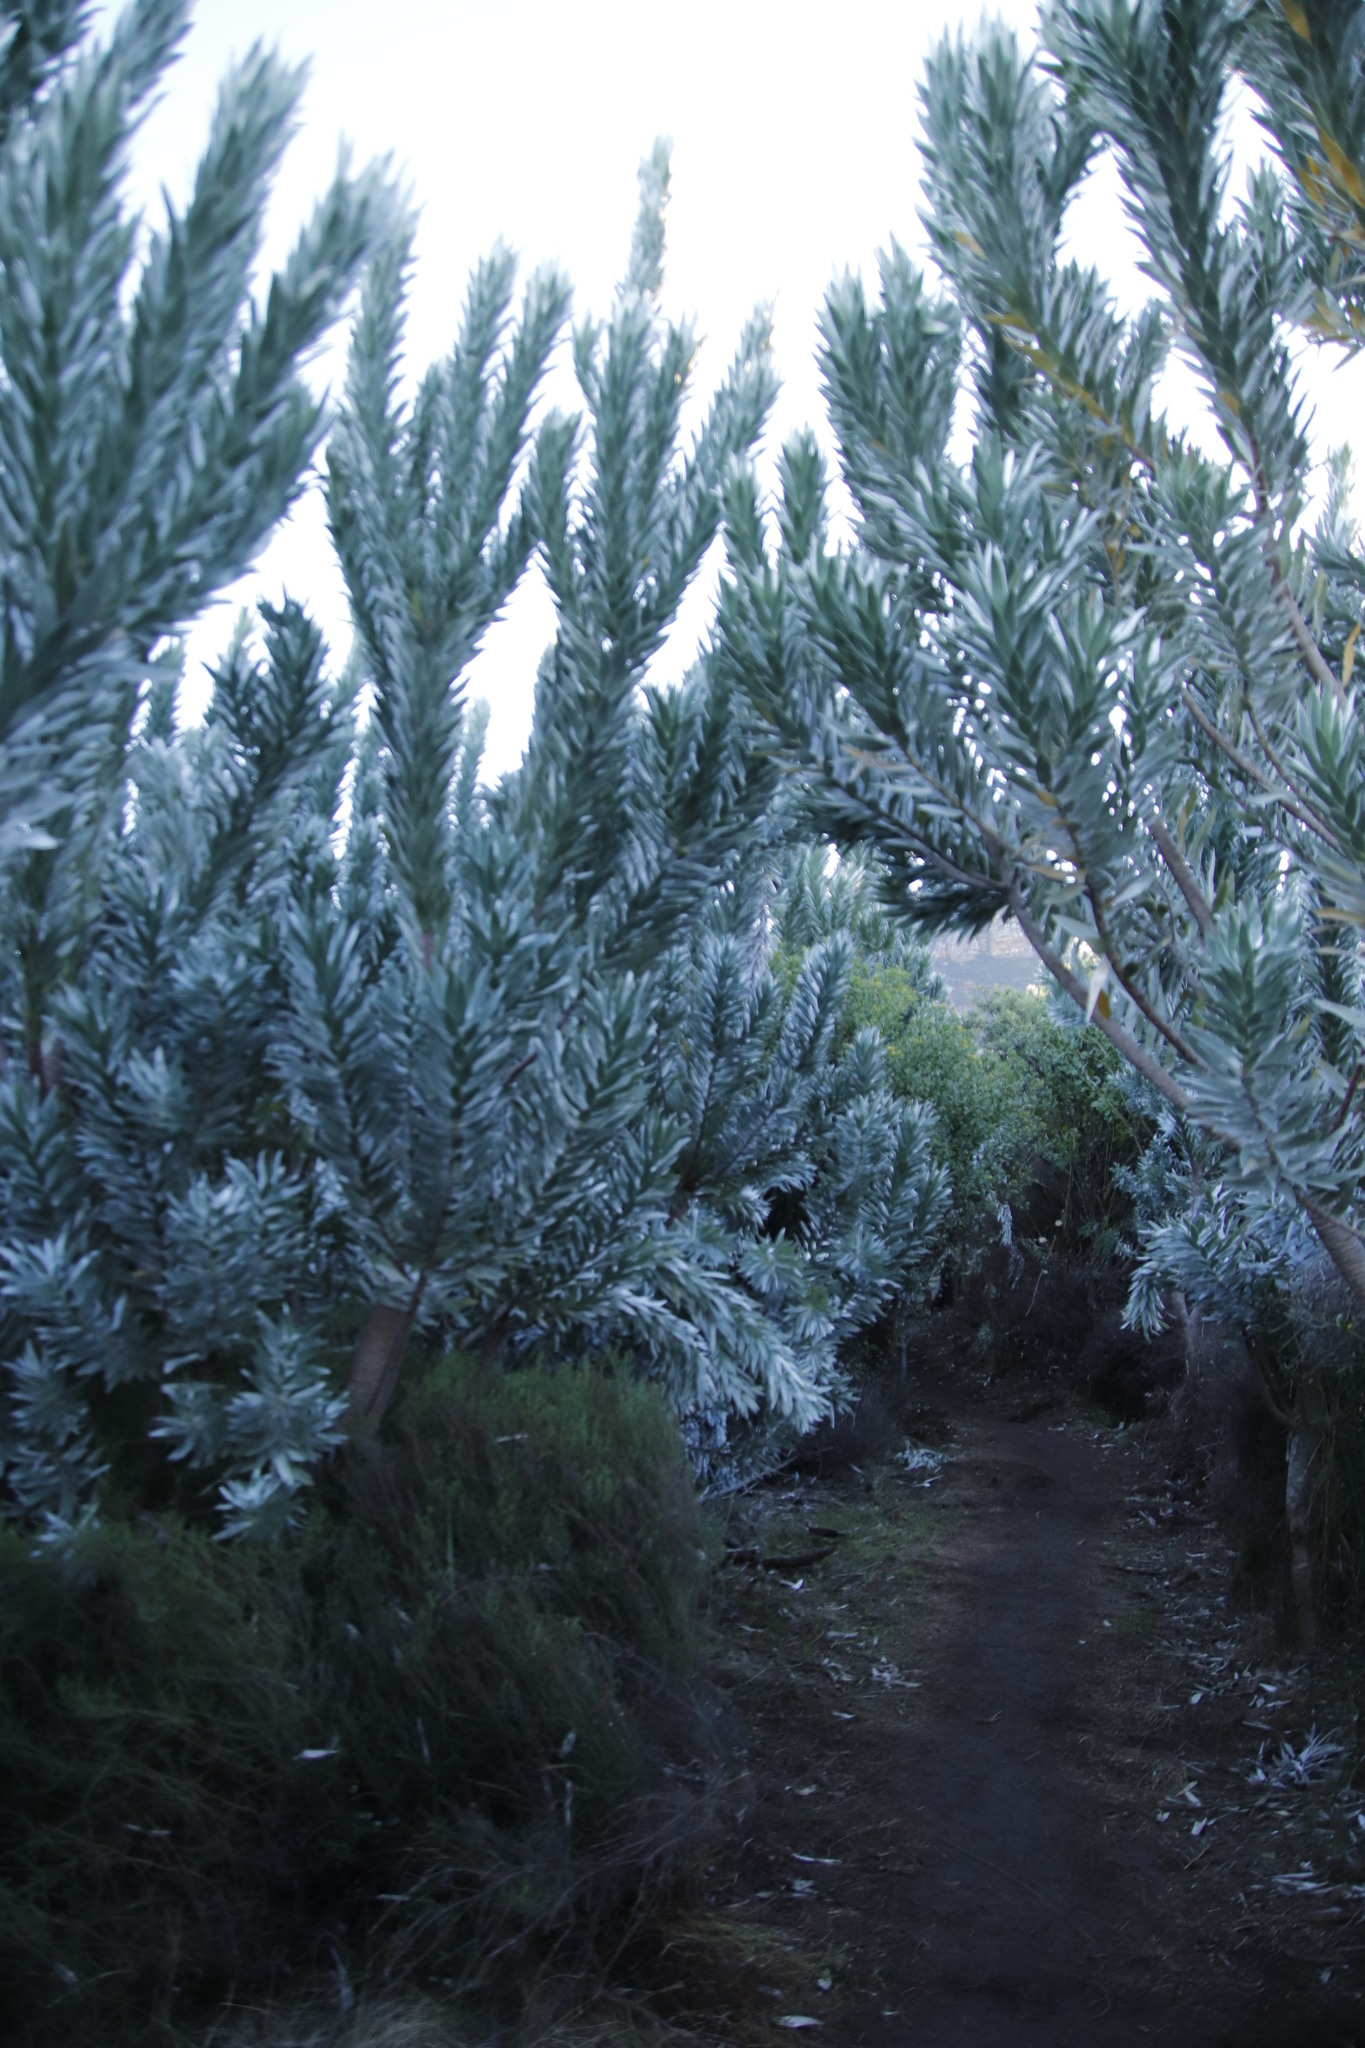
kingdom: Plantae
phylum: Tracheophyta
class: Magnoliopsida
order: Proteales
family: Proteaceae
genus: Leucadendron
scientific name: Leucadendron argenteum
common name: Cape silver tree
